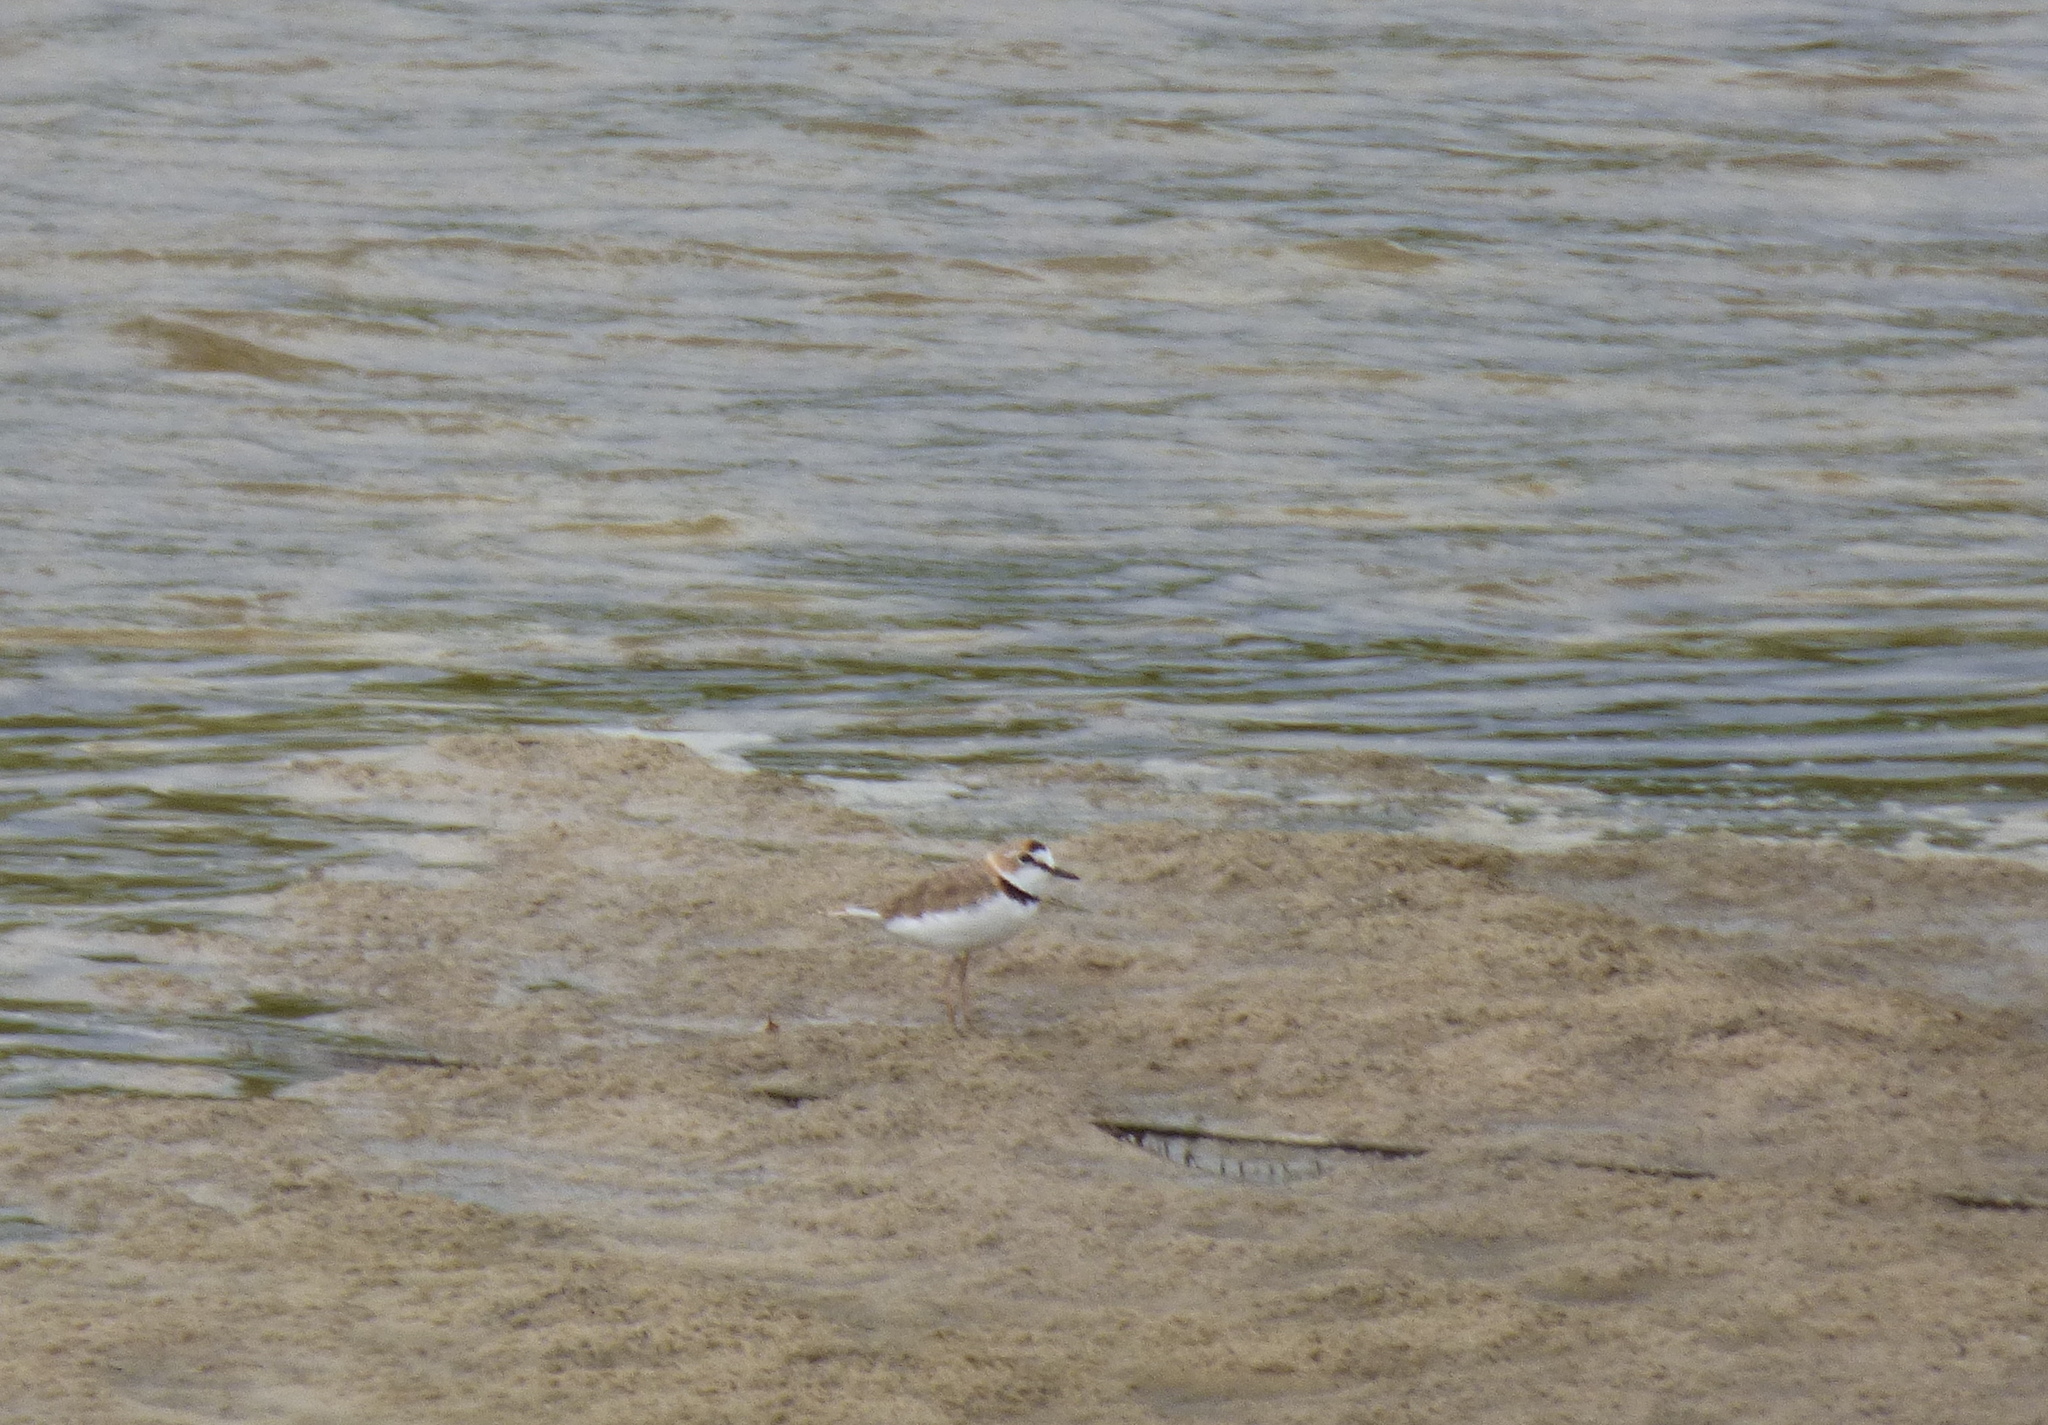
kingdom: Animalia
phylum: Chordata
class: Aves
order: Charadriiformes
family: Charadriidae
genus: Anarhynchus
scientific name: Anarhynchus
